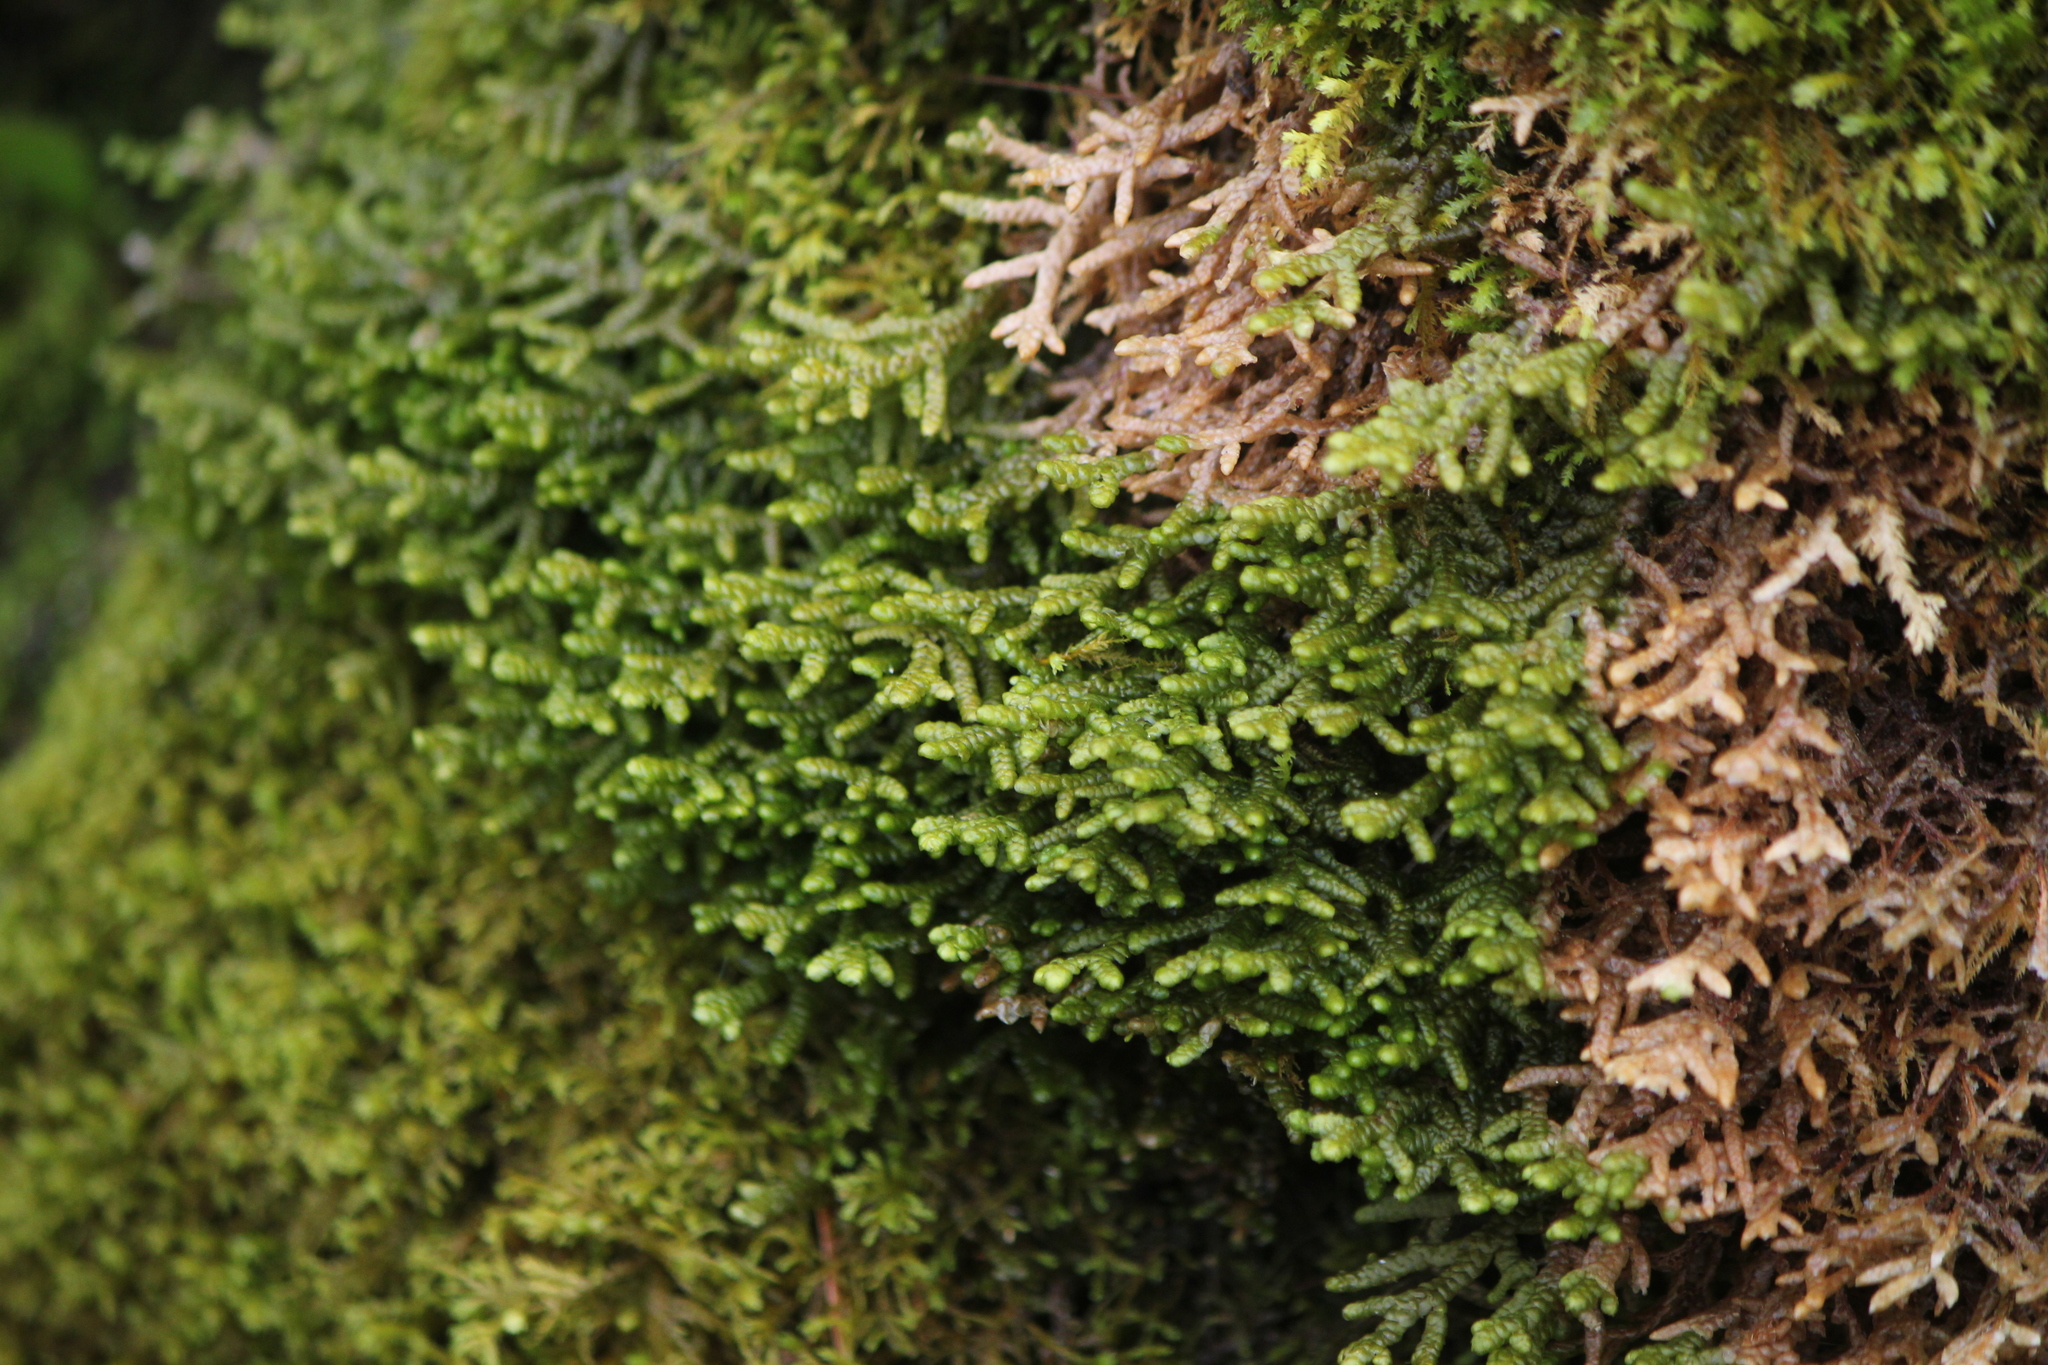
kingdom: Plantae
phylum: Marchantiophyta
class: Jungermanniopsida
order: Porellales
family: Porellaceae
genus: Porella
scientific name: Porella platyphylla
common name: Wall scalewort
